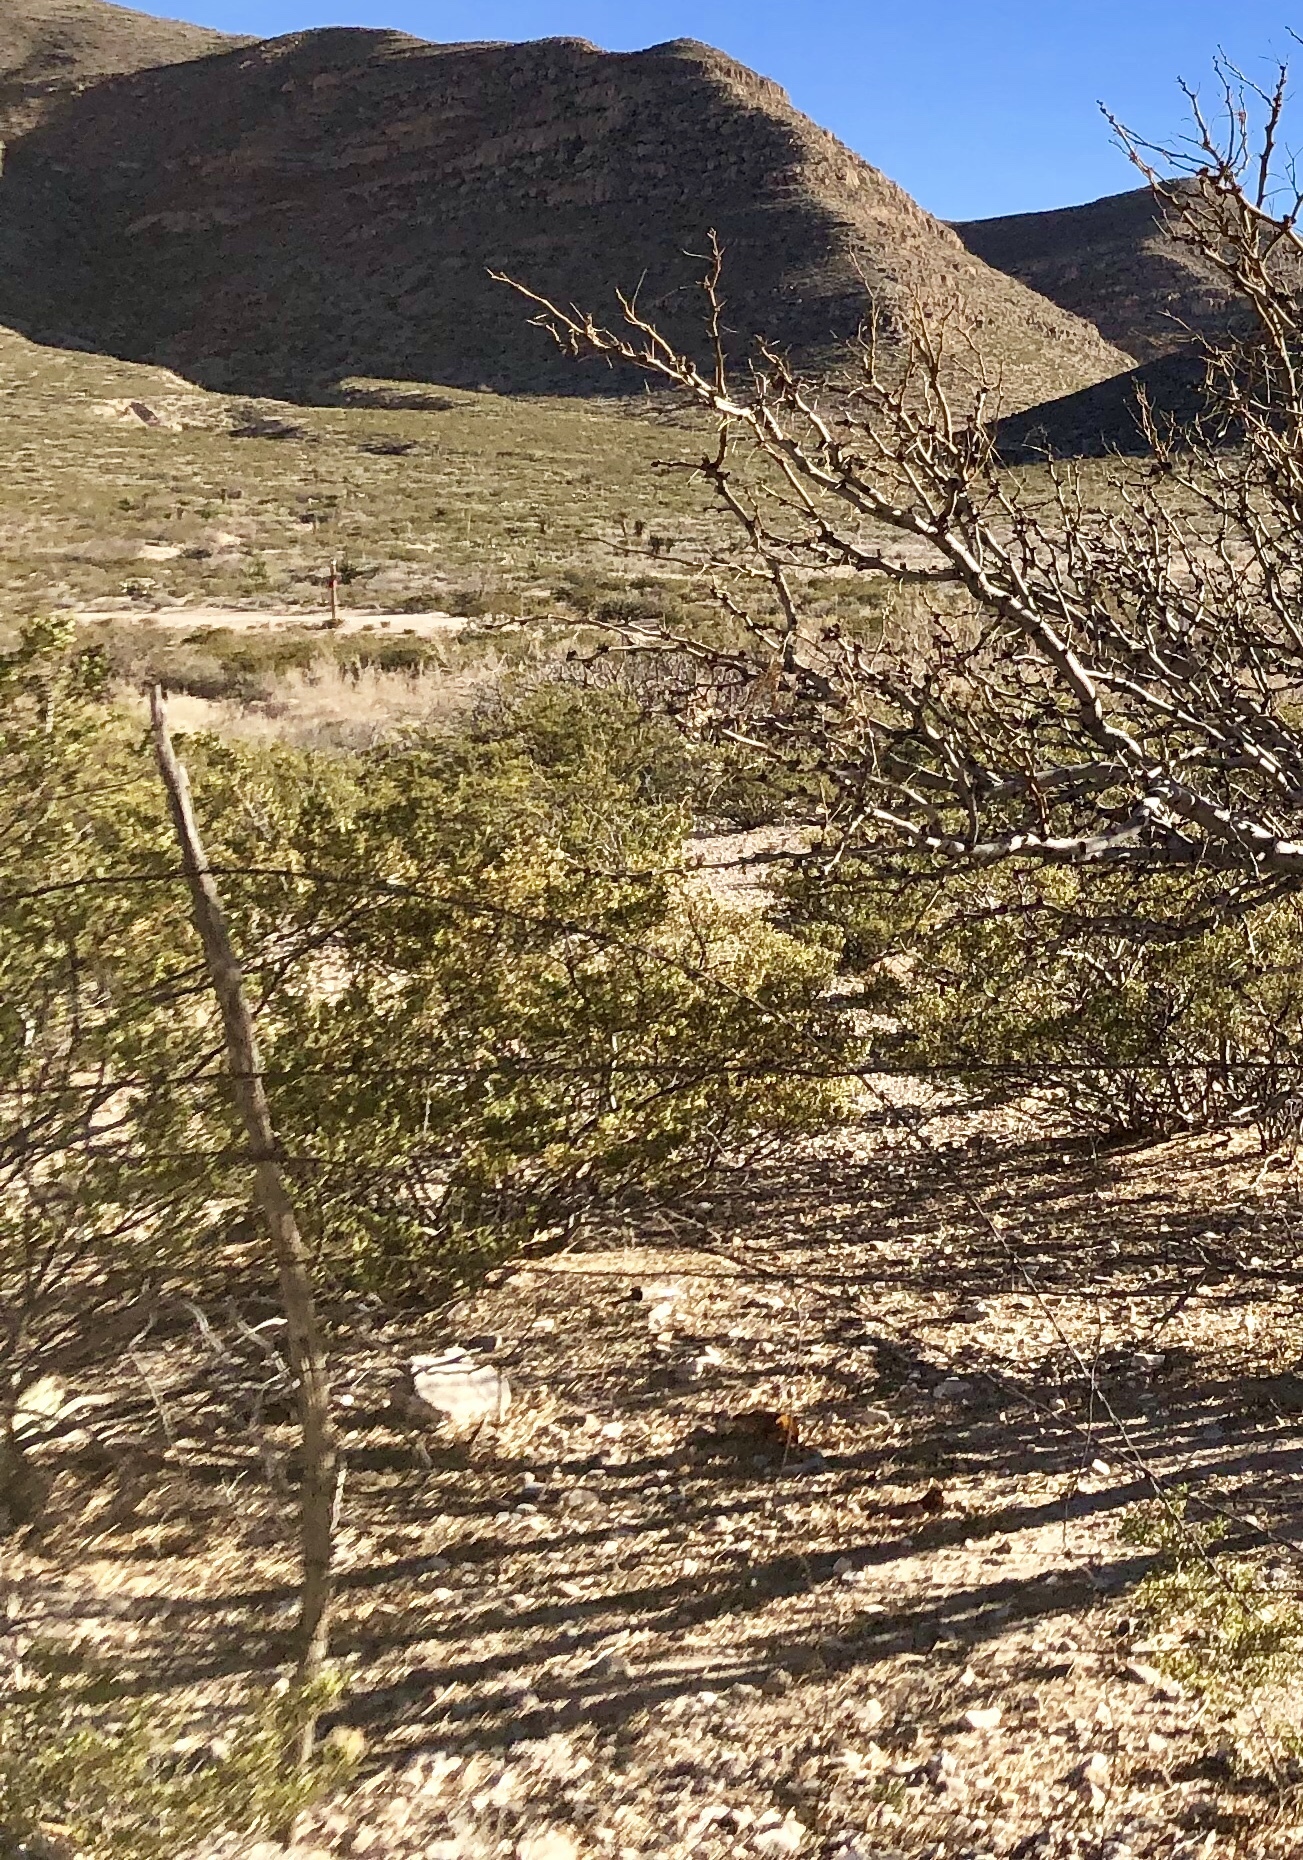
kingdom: Plantae
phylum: Tracheophyta
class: Magnoliopsida
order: Zygophyllales
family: Zygophyllaceae
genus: Larrea
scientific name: Larrea tridentata
